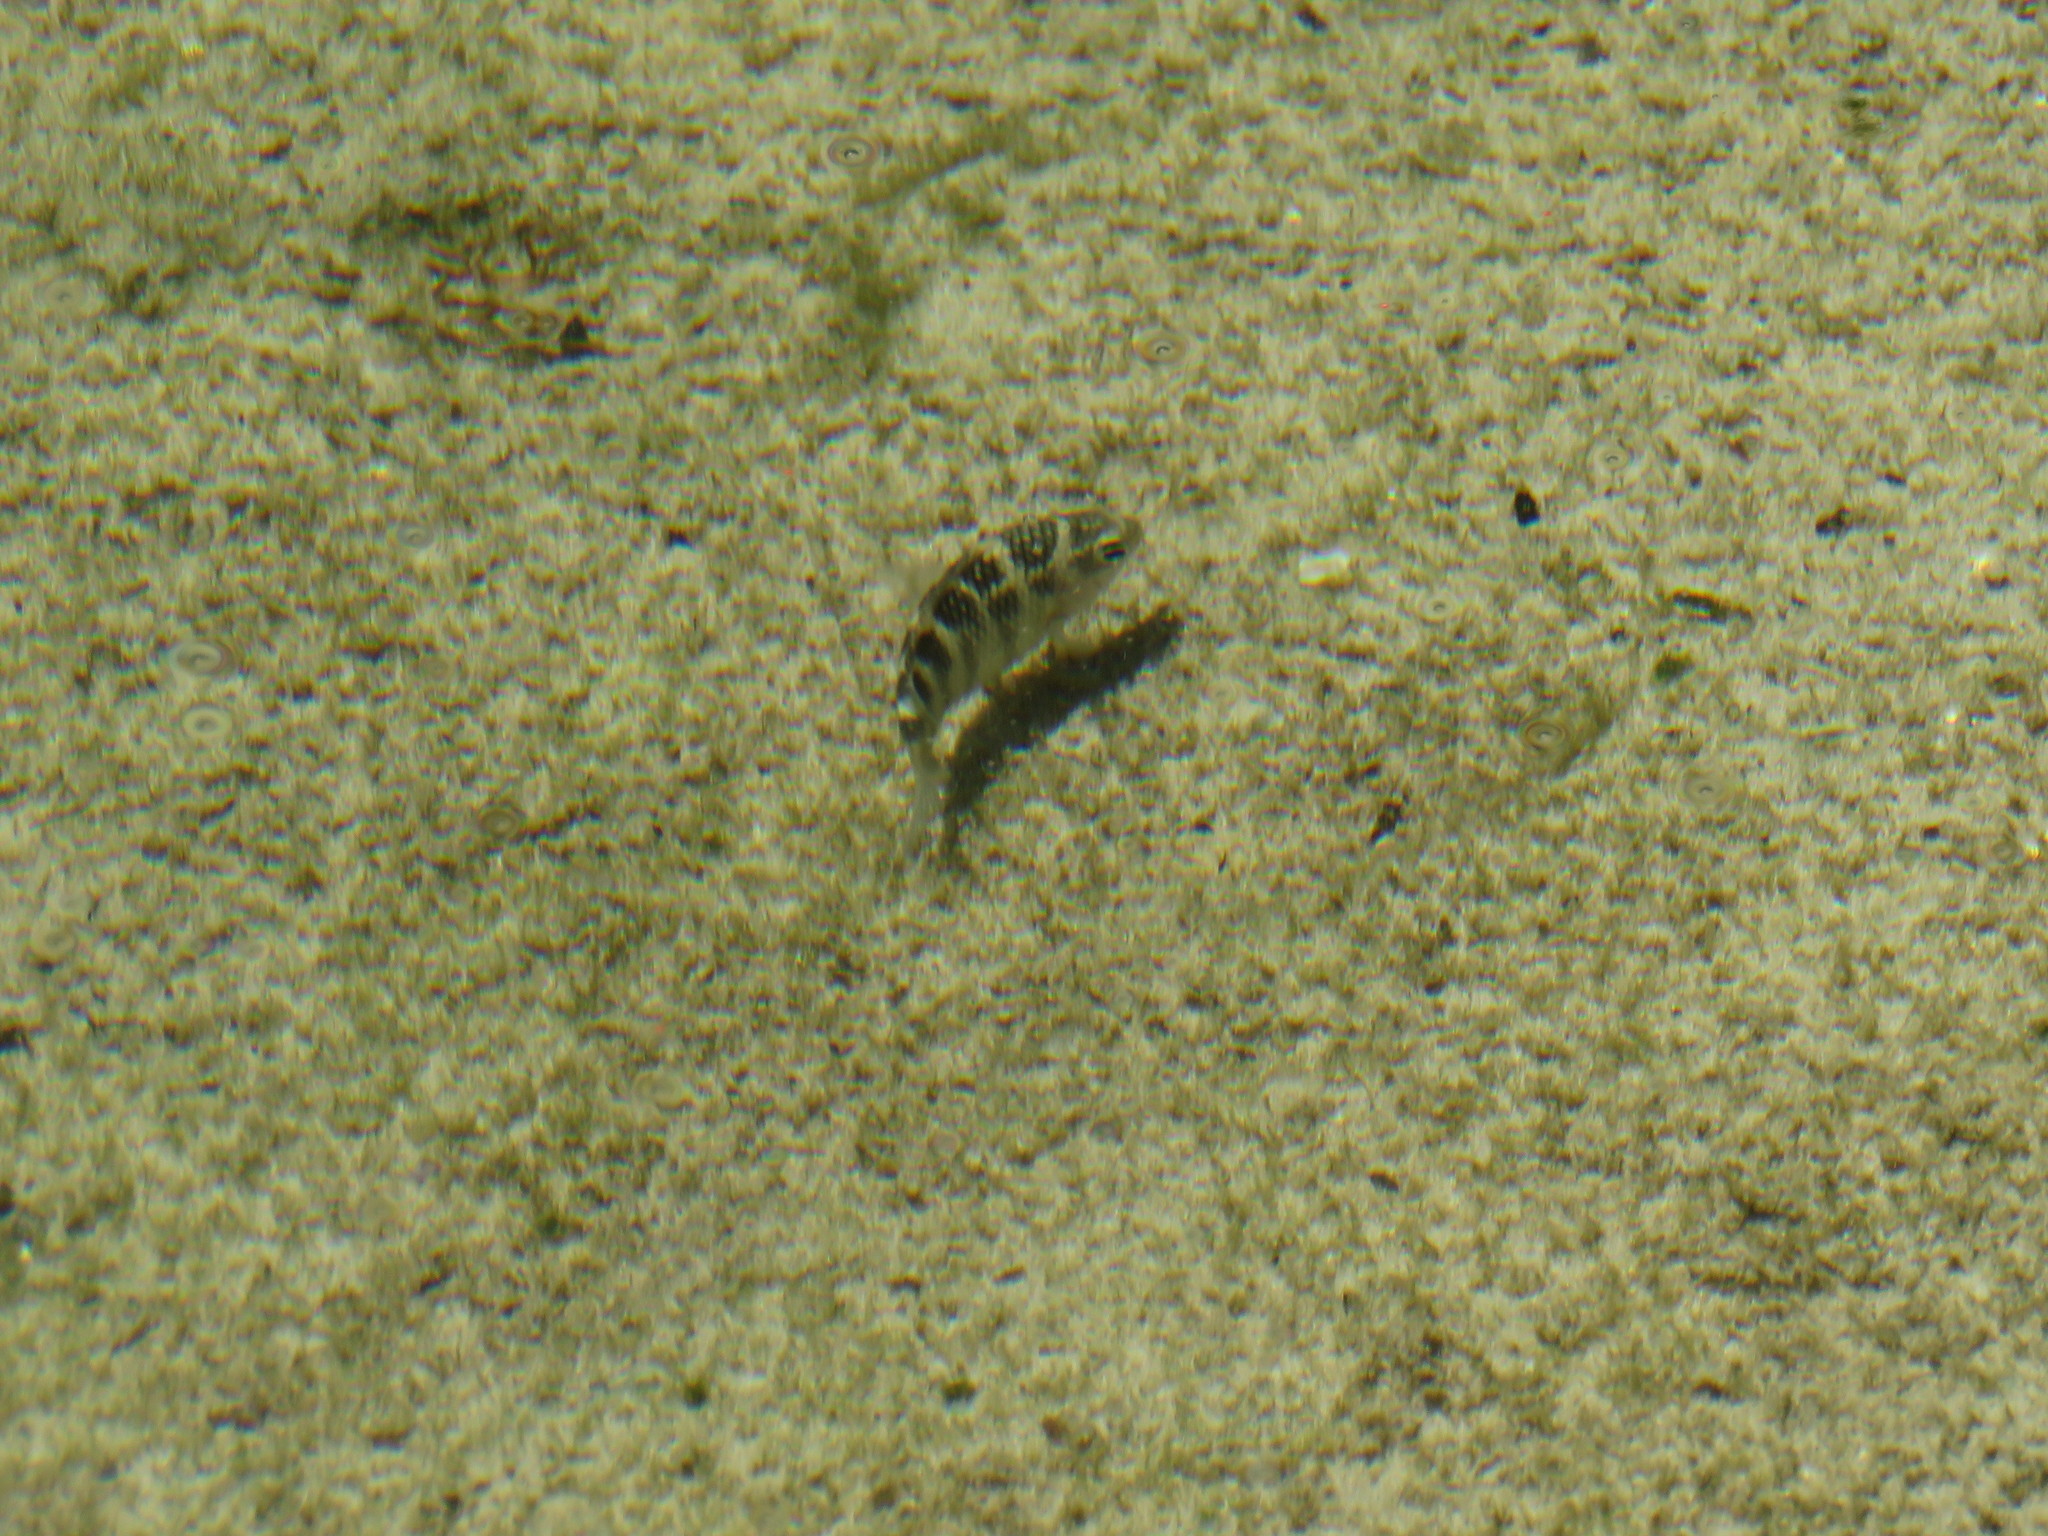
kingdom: Animalia
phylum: Chordata
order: Perciformes
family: Pomacentridae
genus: Abudefduf
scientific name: Abudefduf concolor
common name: Dusky seargent
